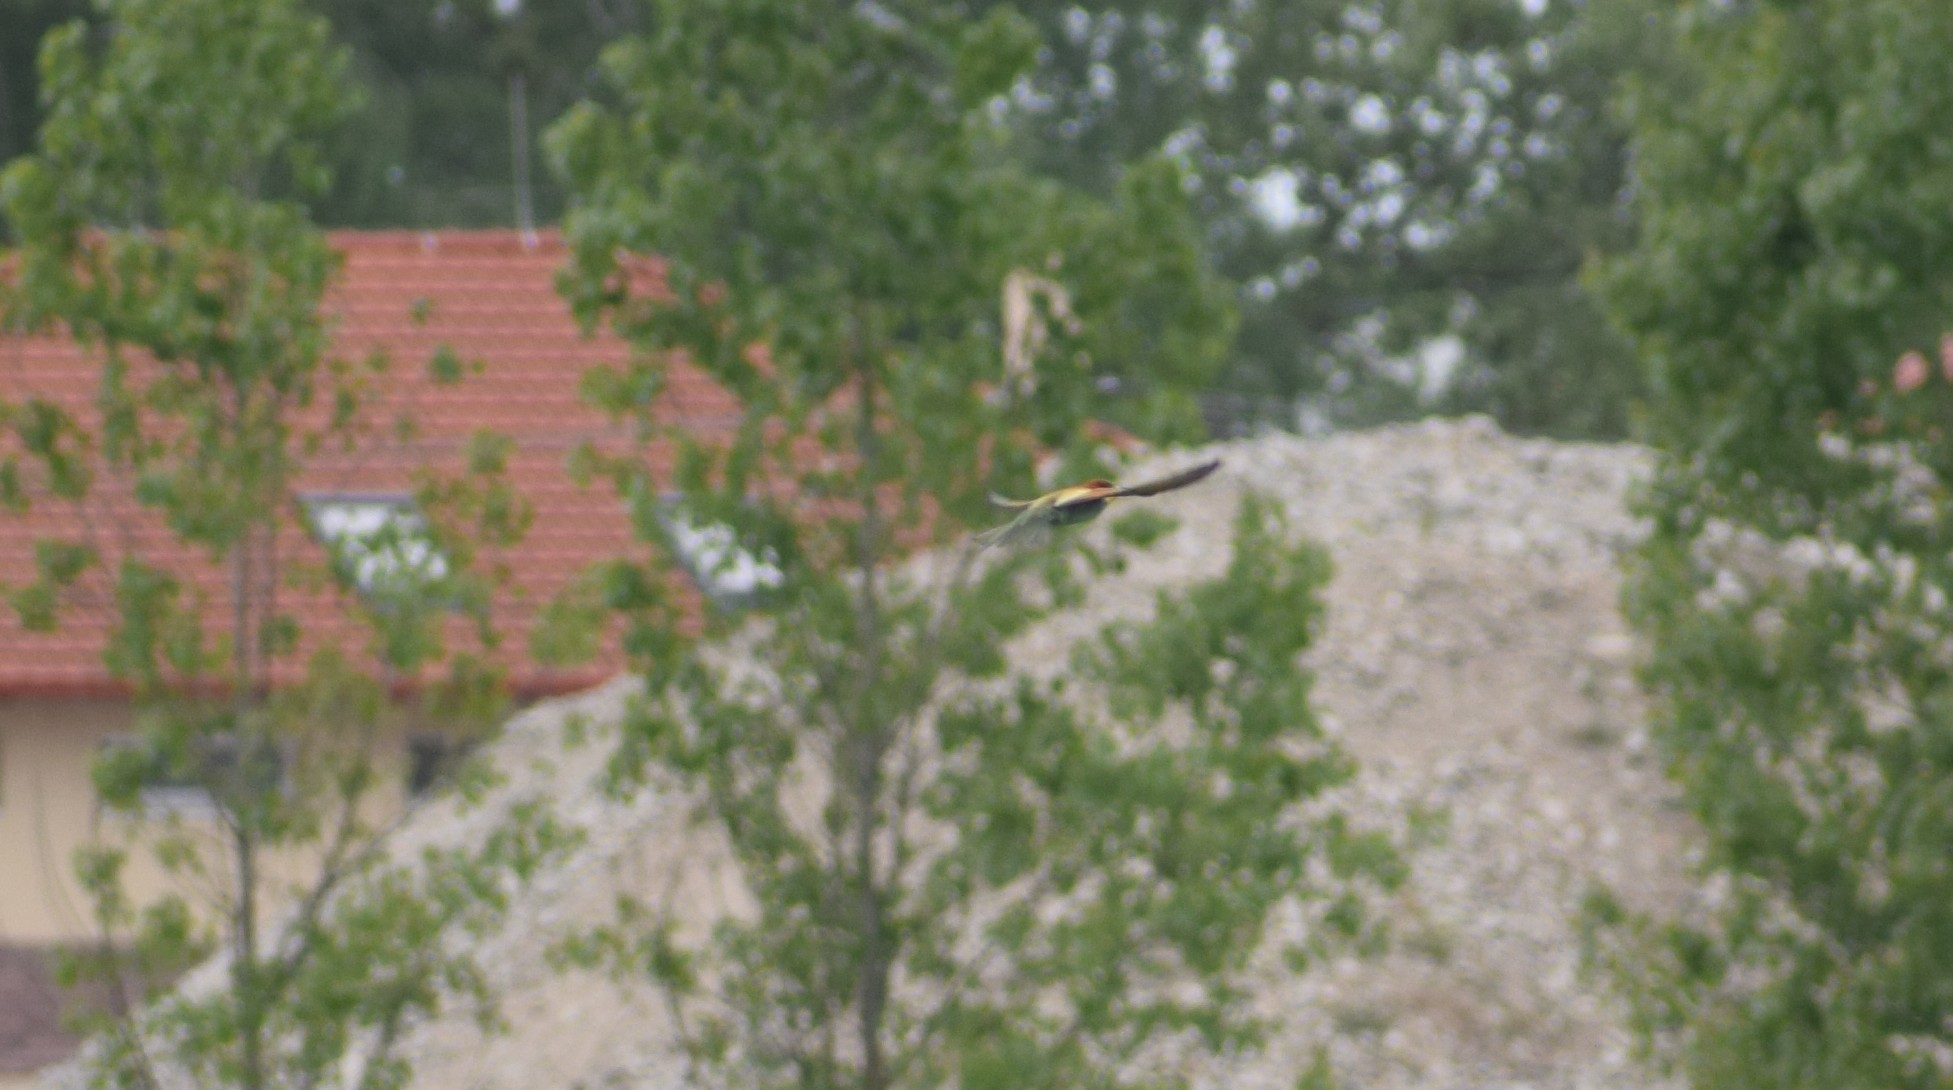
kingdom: Animalia
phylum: Chordata
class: Aves
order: Coraciiformes
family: Meropidae
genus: Merops
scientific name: Merops apiaster
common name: European bee-eater
